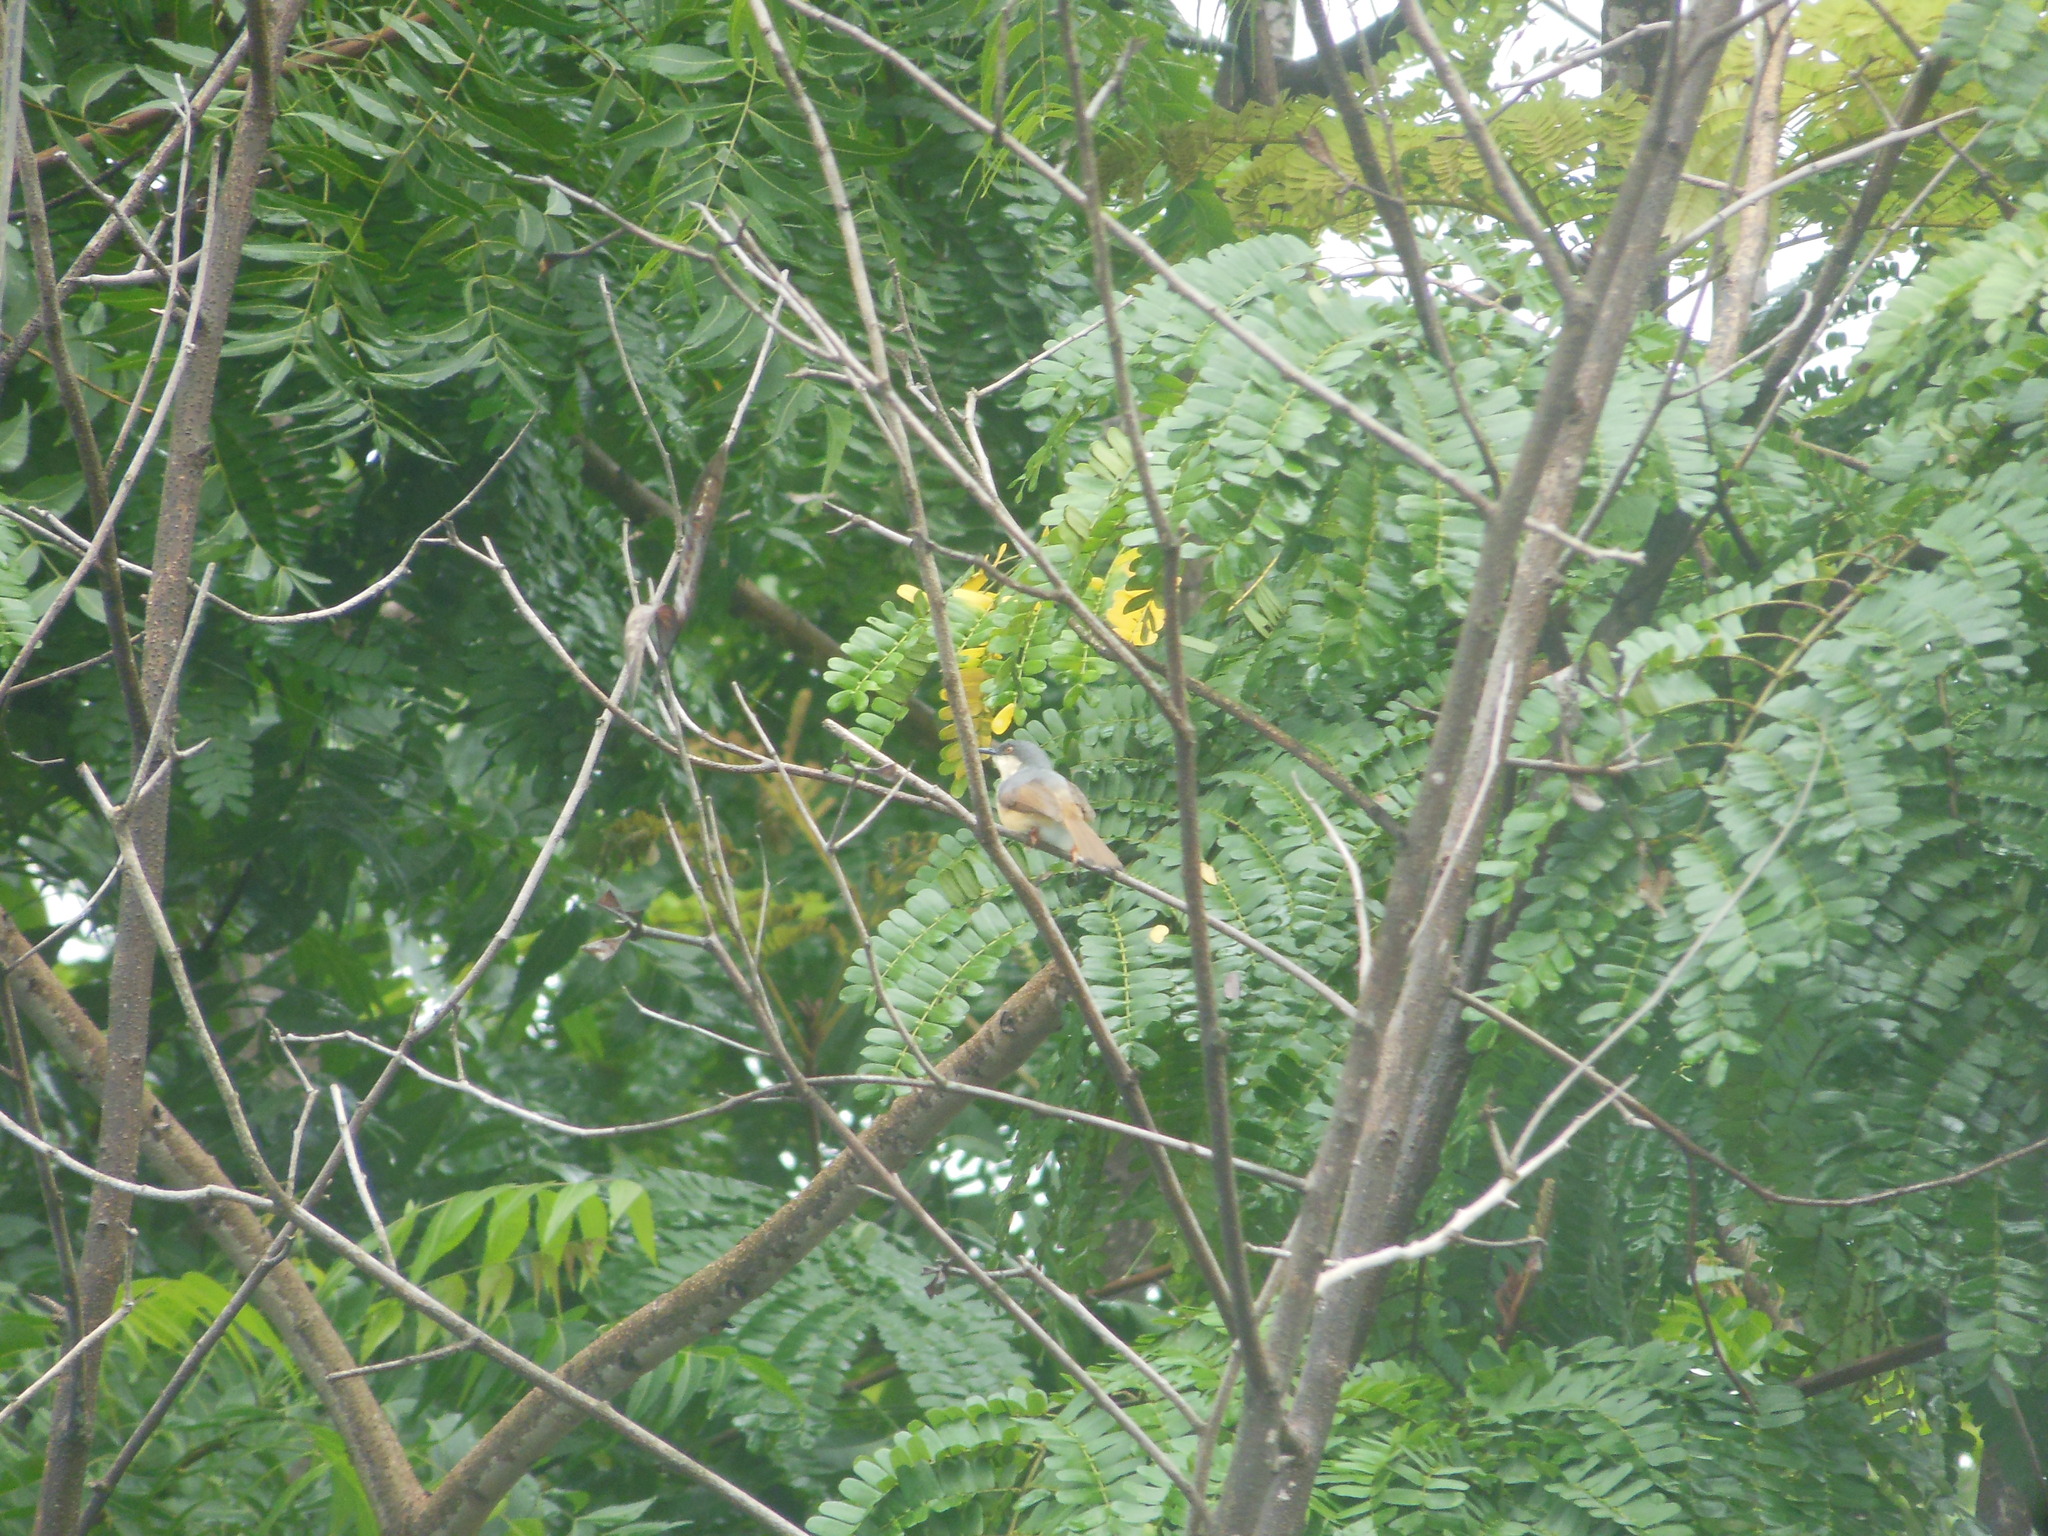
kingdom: Animalia
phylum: Chordata
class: Aves
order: Passeriformes
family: Cisticolidae
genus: Prinia
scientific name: Prinia socialis
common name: Ashy prinia
